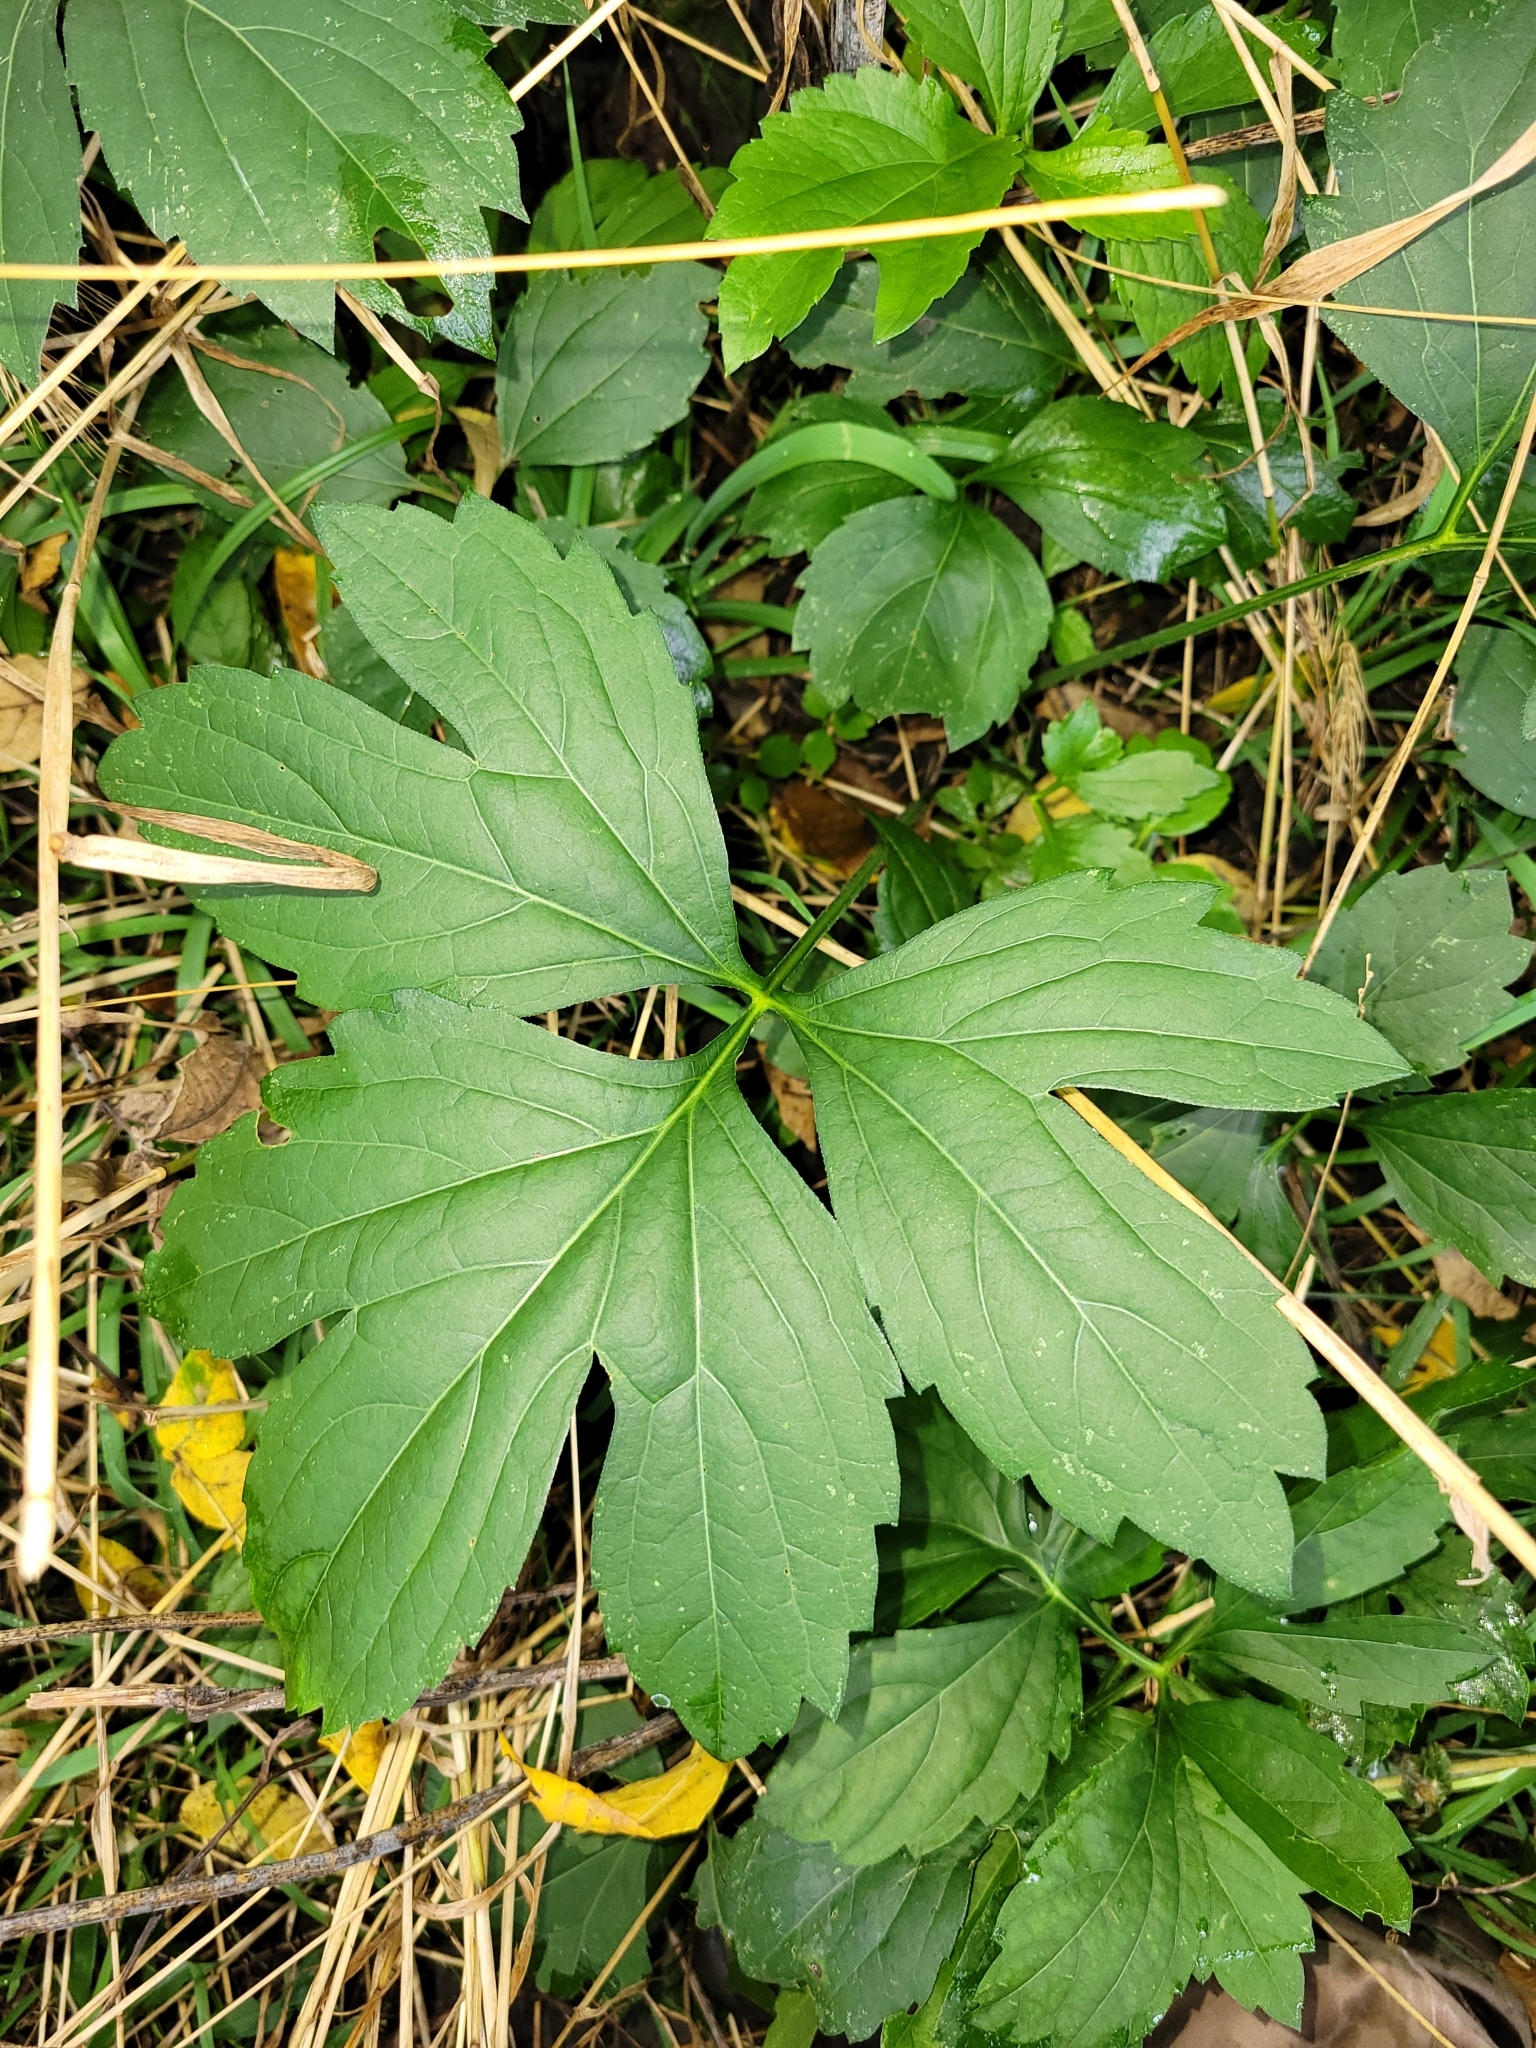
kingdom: Plantae
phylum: Tracheophyta
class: Magnoliopsida
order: Asterales
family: Asteraceae
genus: Rudbeckia
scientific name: Rudbeckia laciniata
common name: Coneflower
